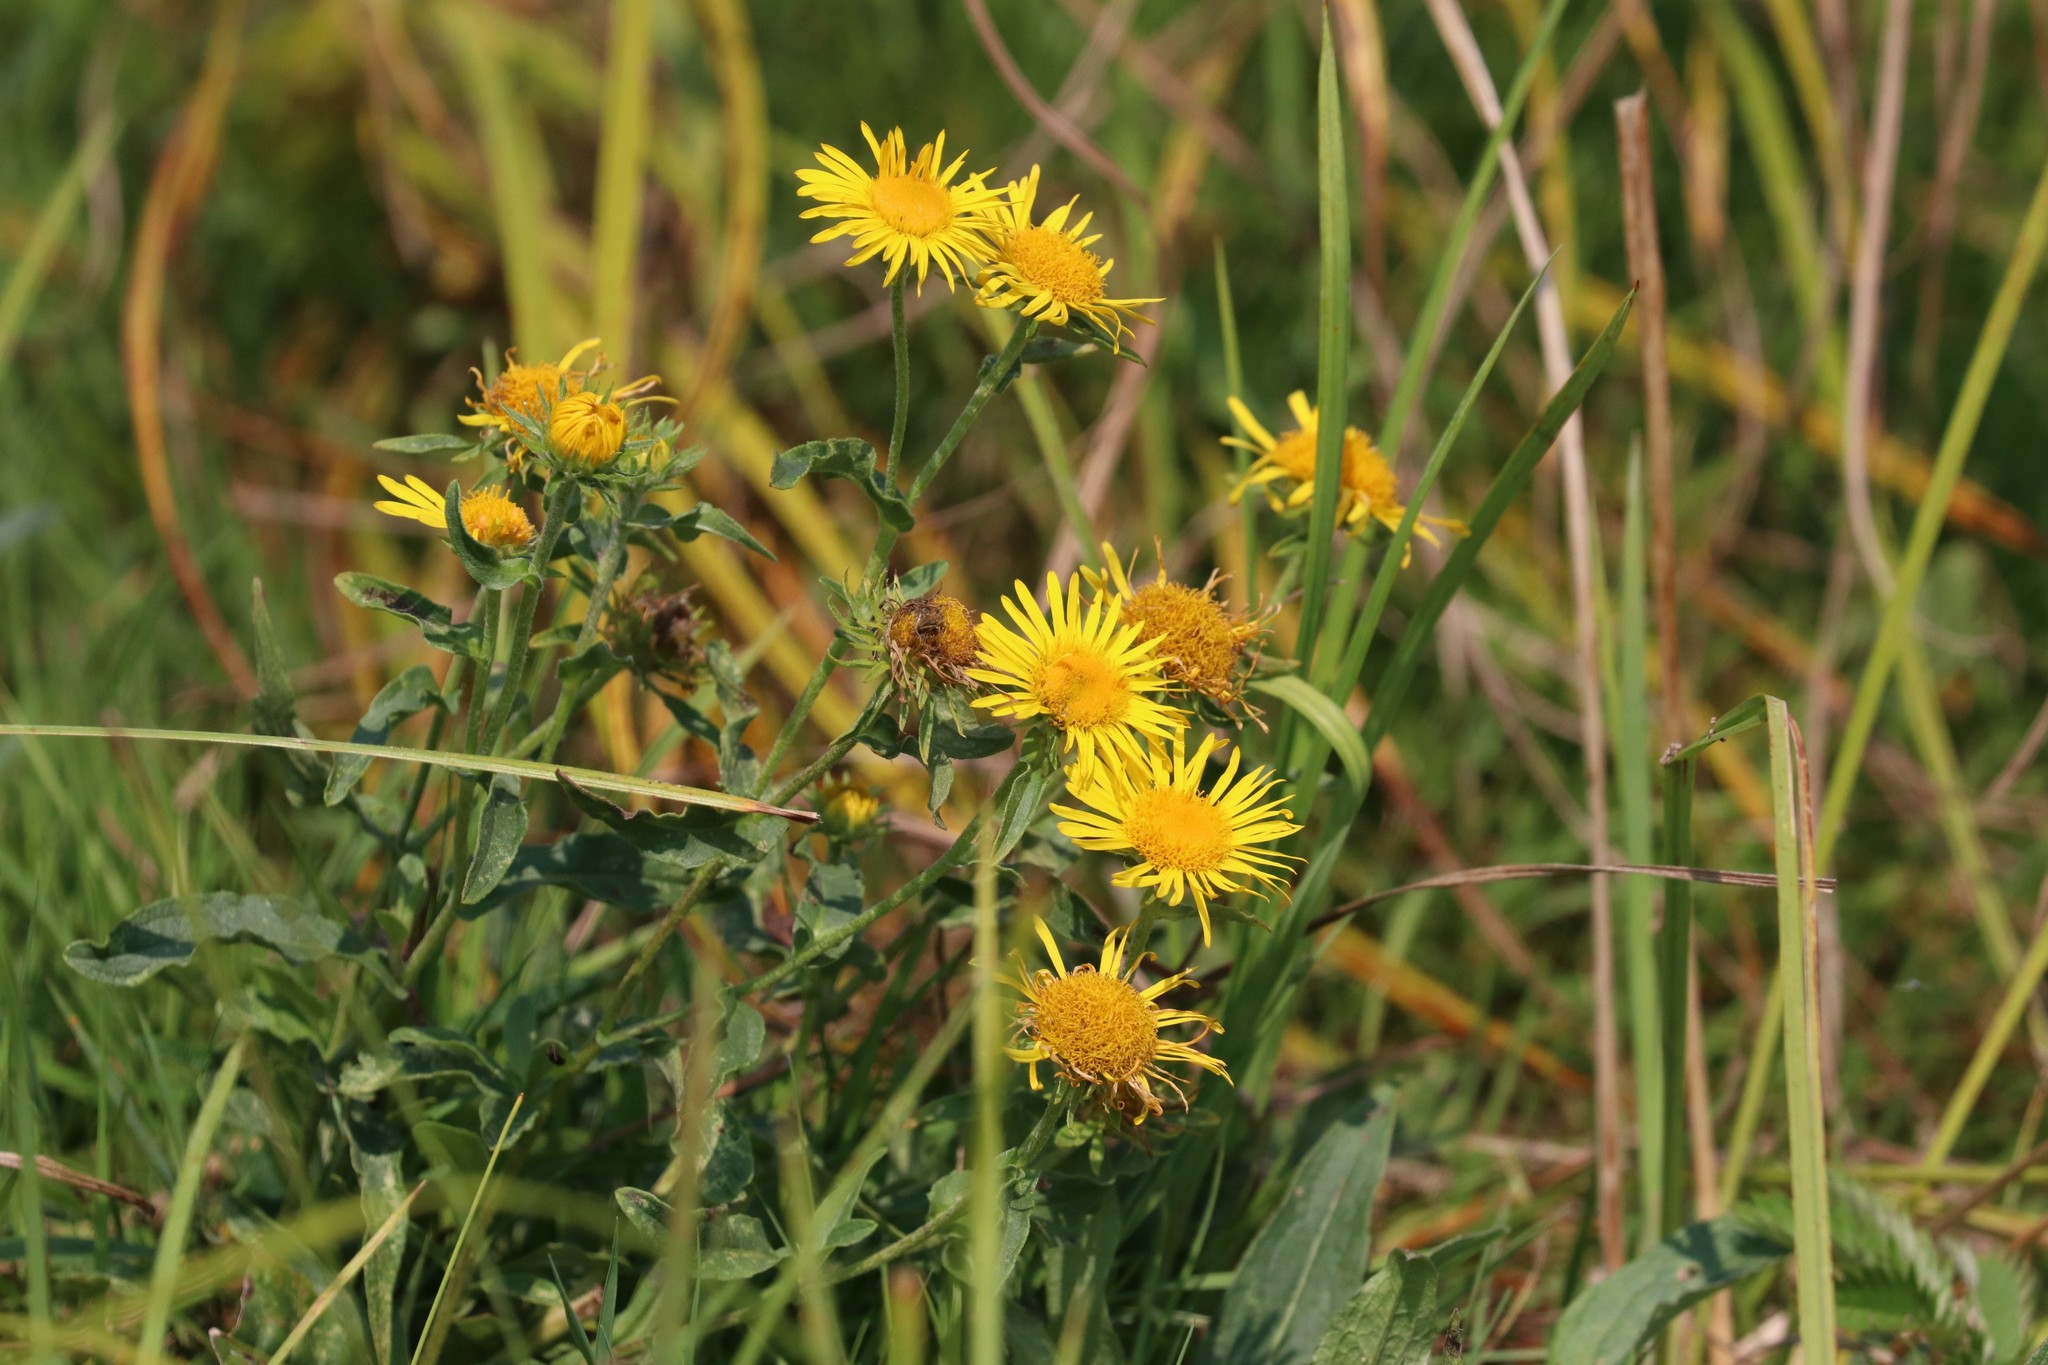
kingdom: Plantae
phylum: Tracheophyta
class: Magnoliopsida
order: Asterales
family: Asteraceae
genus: Pentanema
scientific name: Pentanema britannicum
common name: British elecampane
